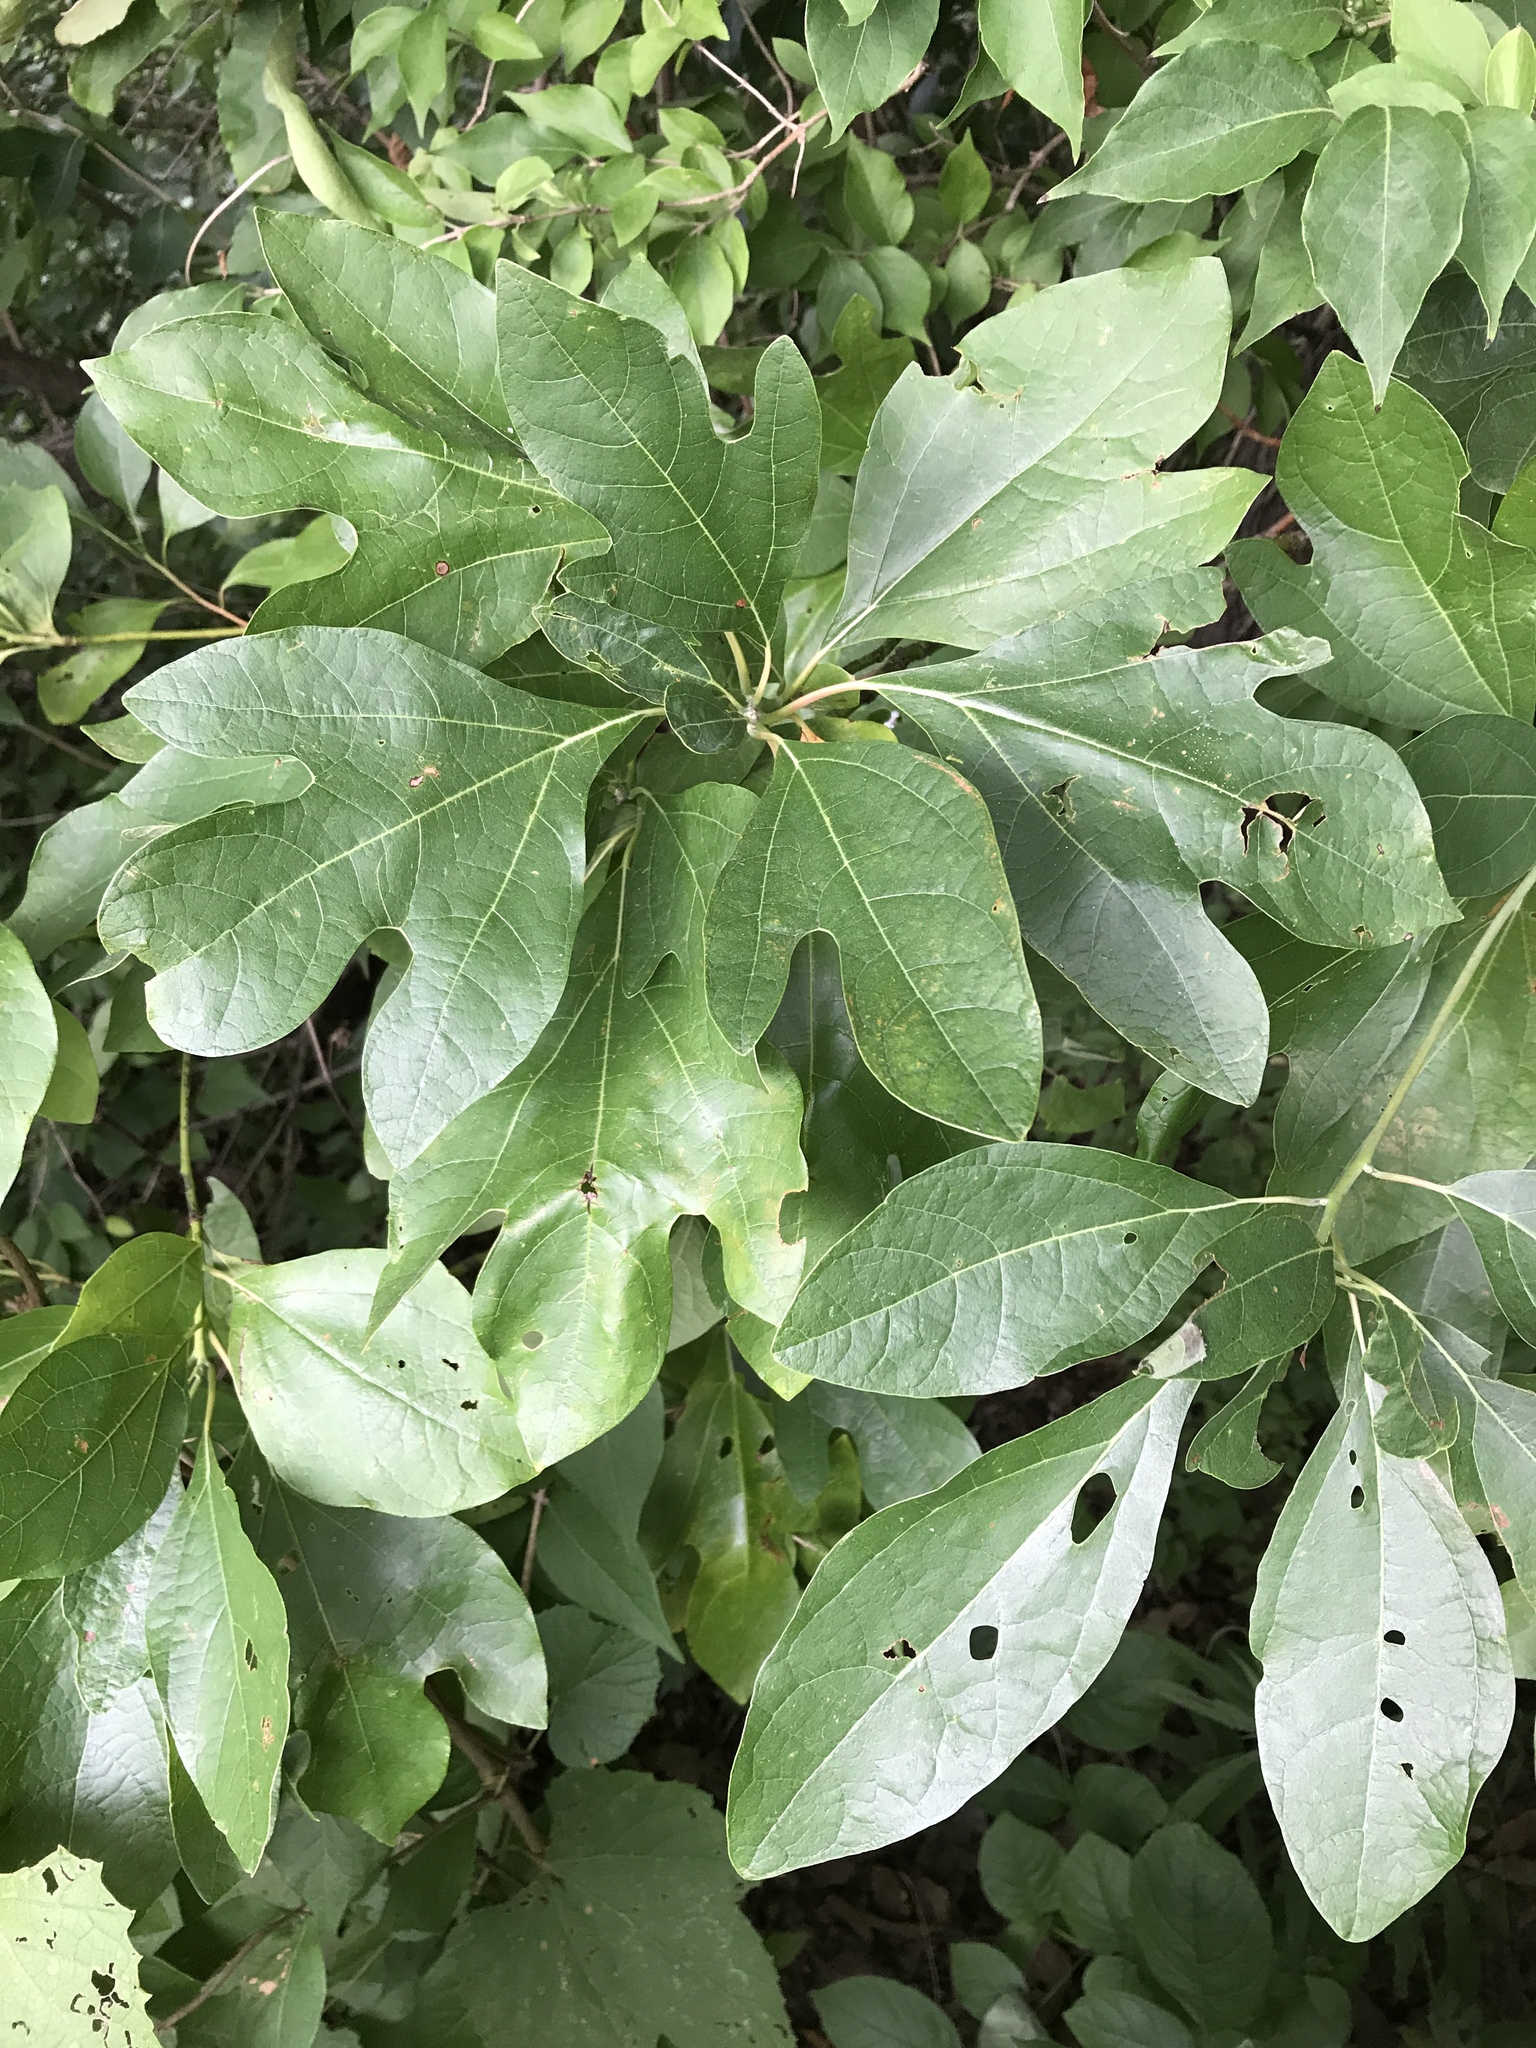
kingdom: Plantae
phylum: Tracheophyta
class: Magnoliopsida
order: Laurales
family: Lauraceae
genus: Sassafras
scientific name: Sassafras albidum
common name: Sassafras
